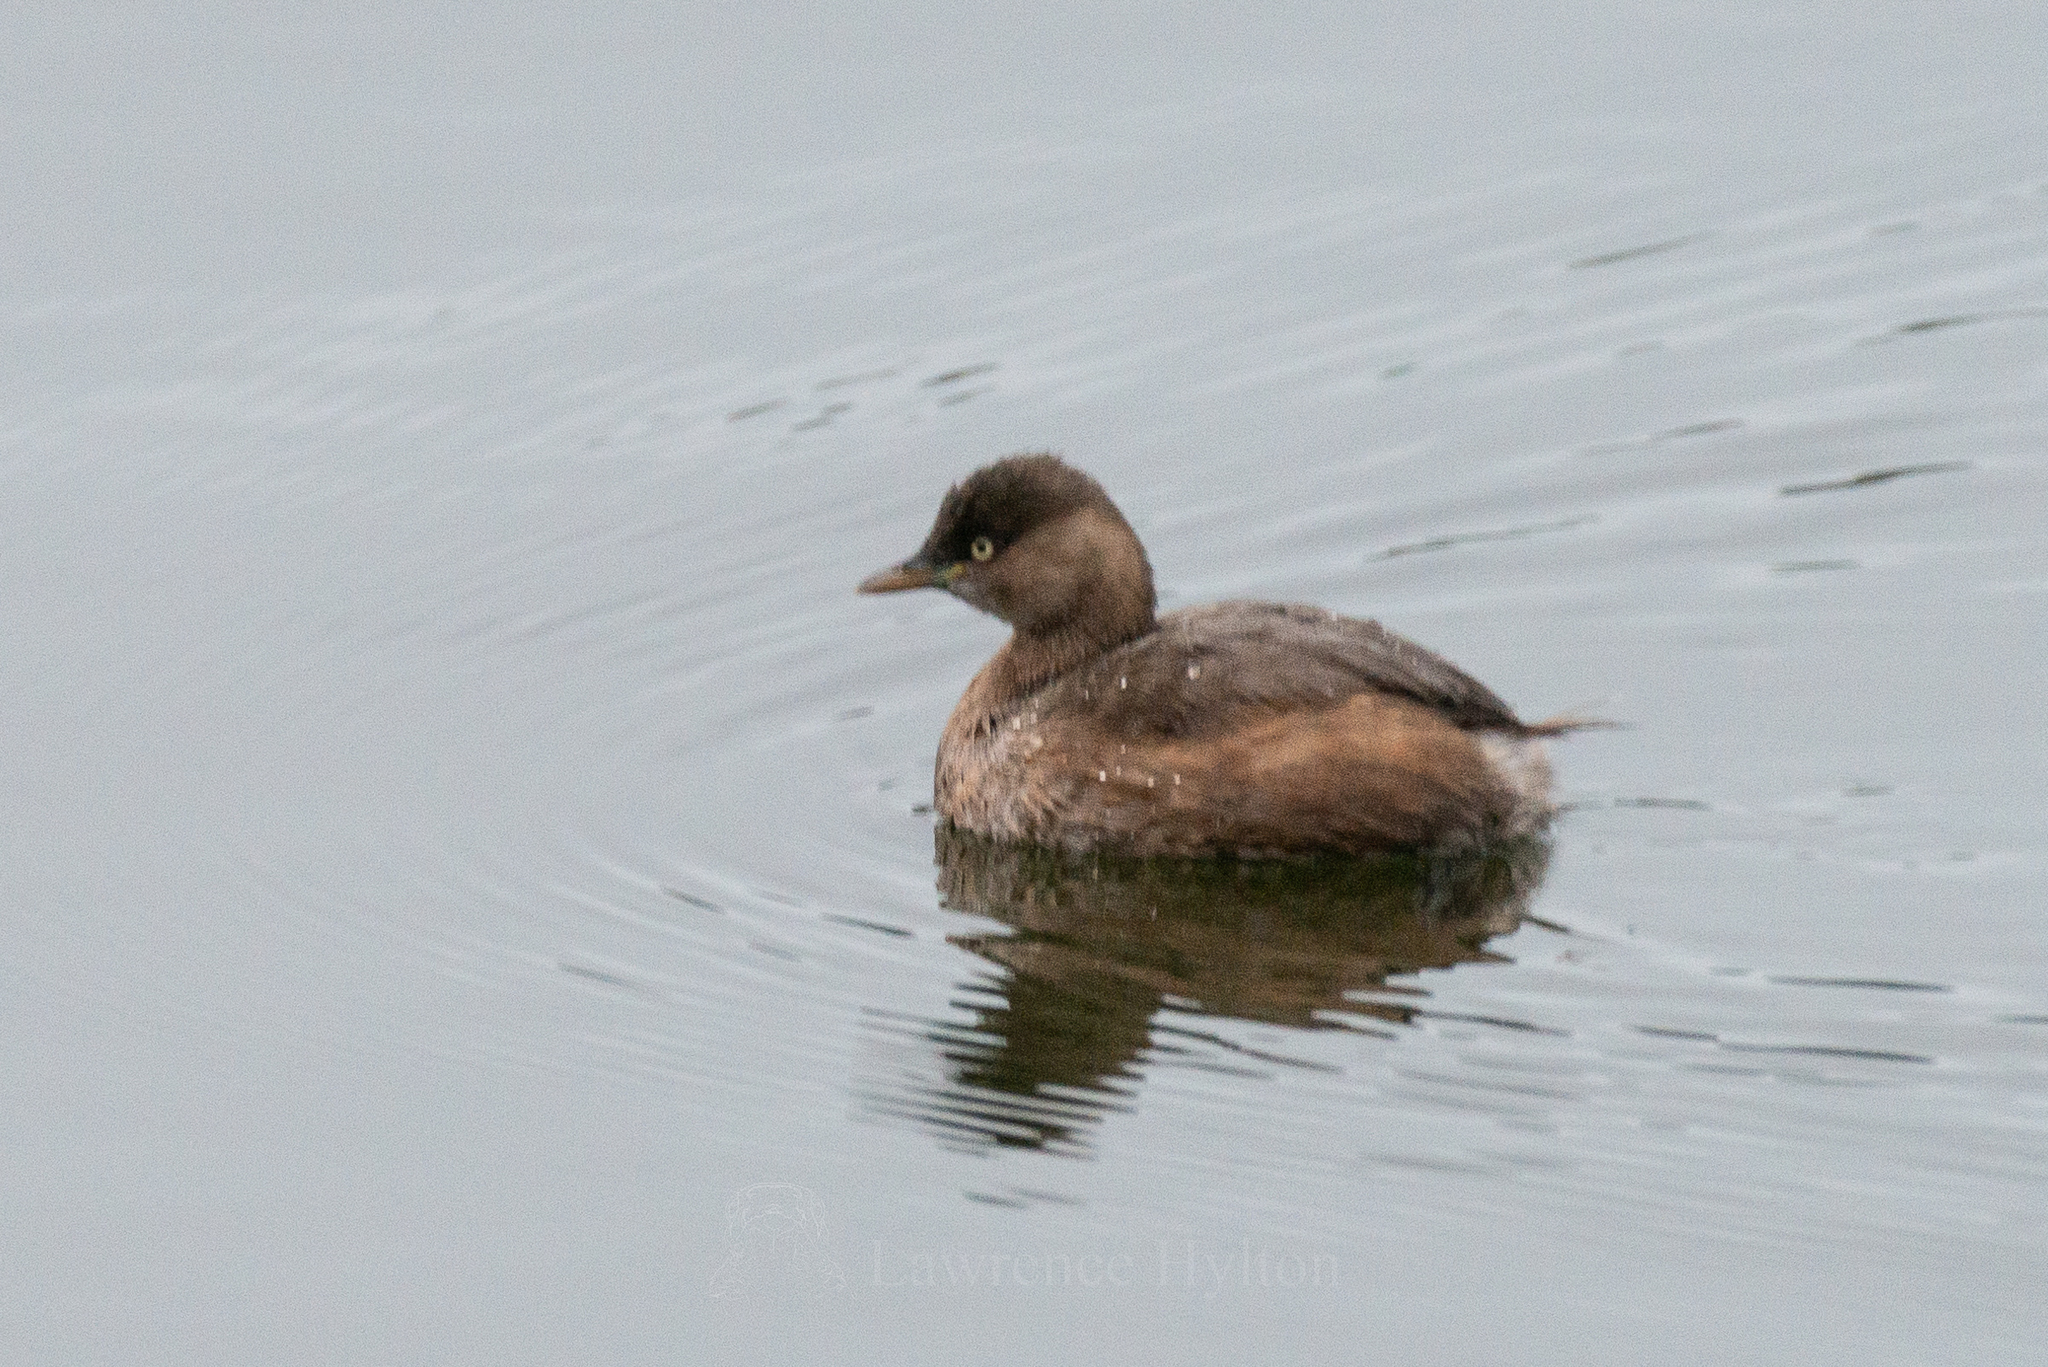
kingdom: Animalia
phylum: Chordata
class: Aves
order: Podicipediformes
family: Podicipedidae
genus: Tachybaptus
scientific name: Tachybaptus ruficollis
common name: Little grebe
